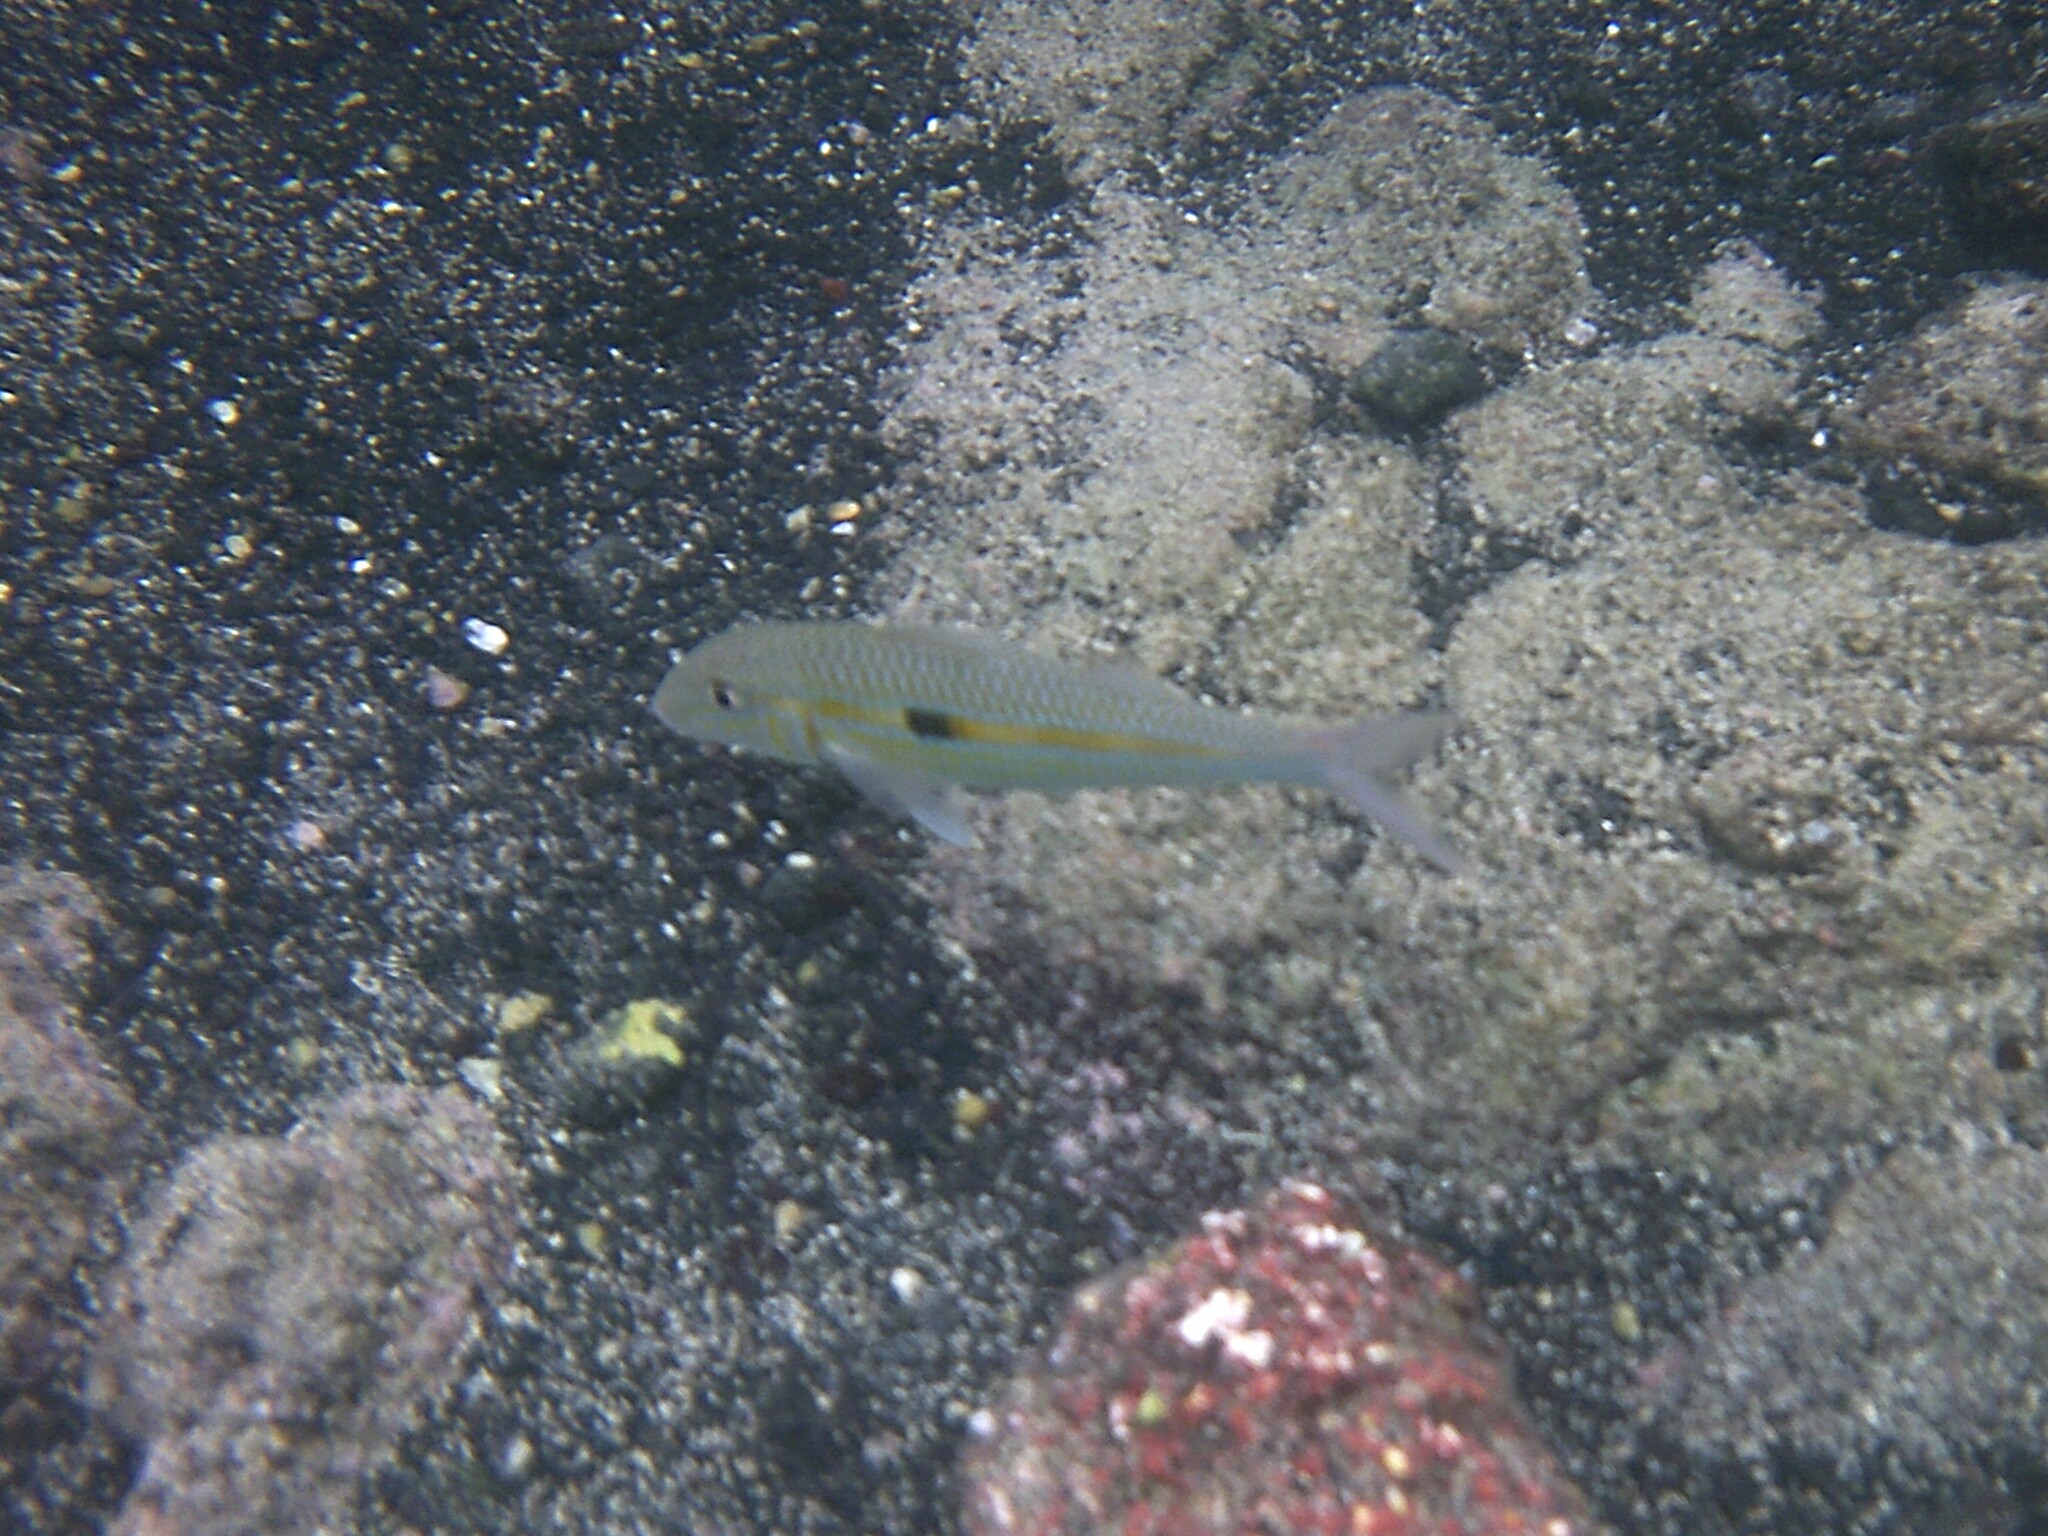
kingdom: Animalia
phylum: Chordata
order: Perciformes
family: Mullidae
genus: Mulloidichthys
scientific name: Mulloidichthys flavolineatus
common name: Yellowstripe goatfish
